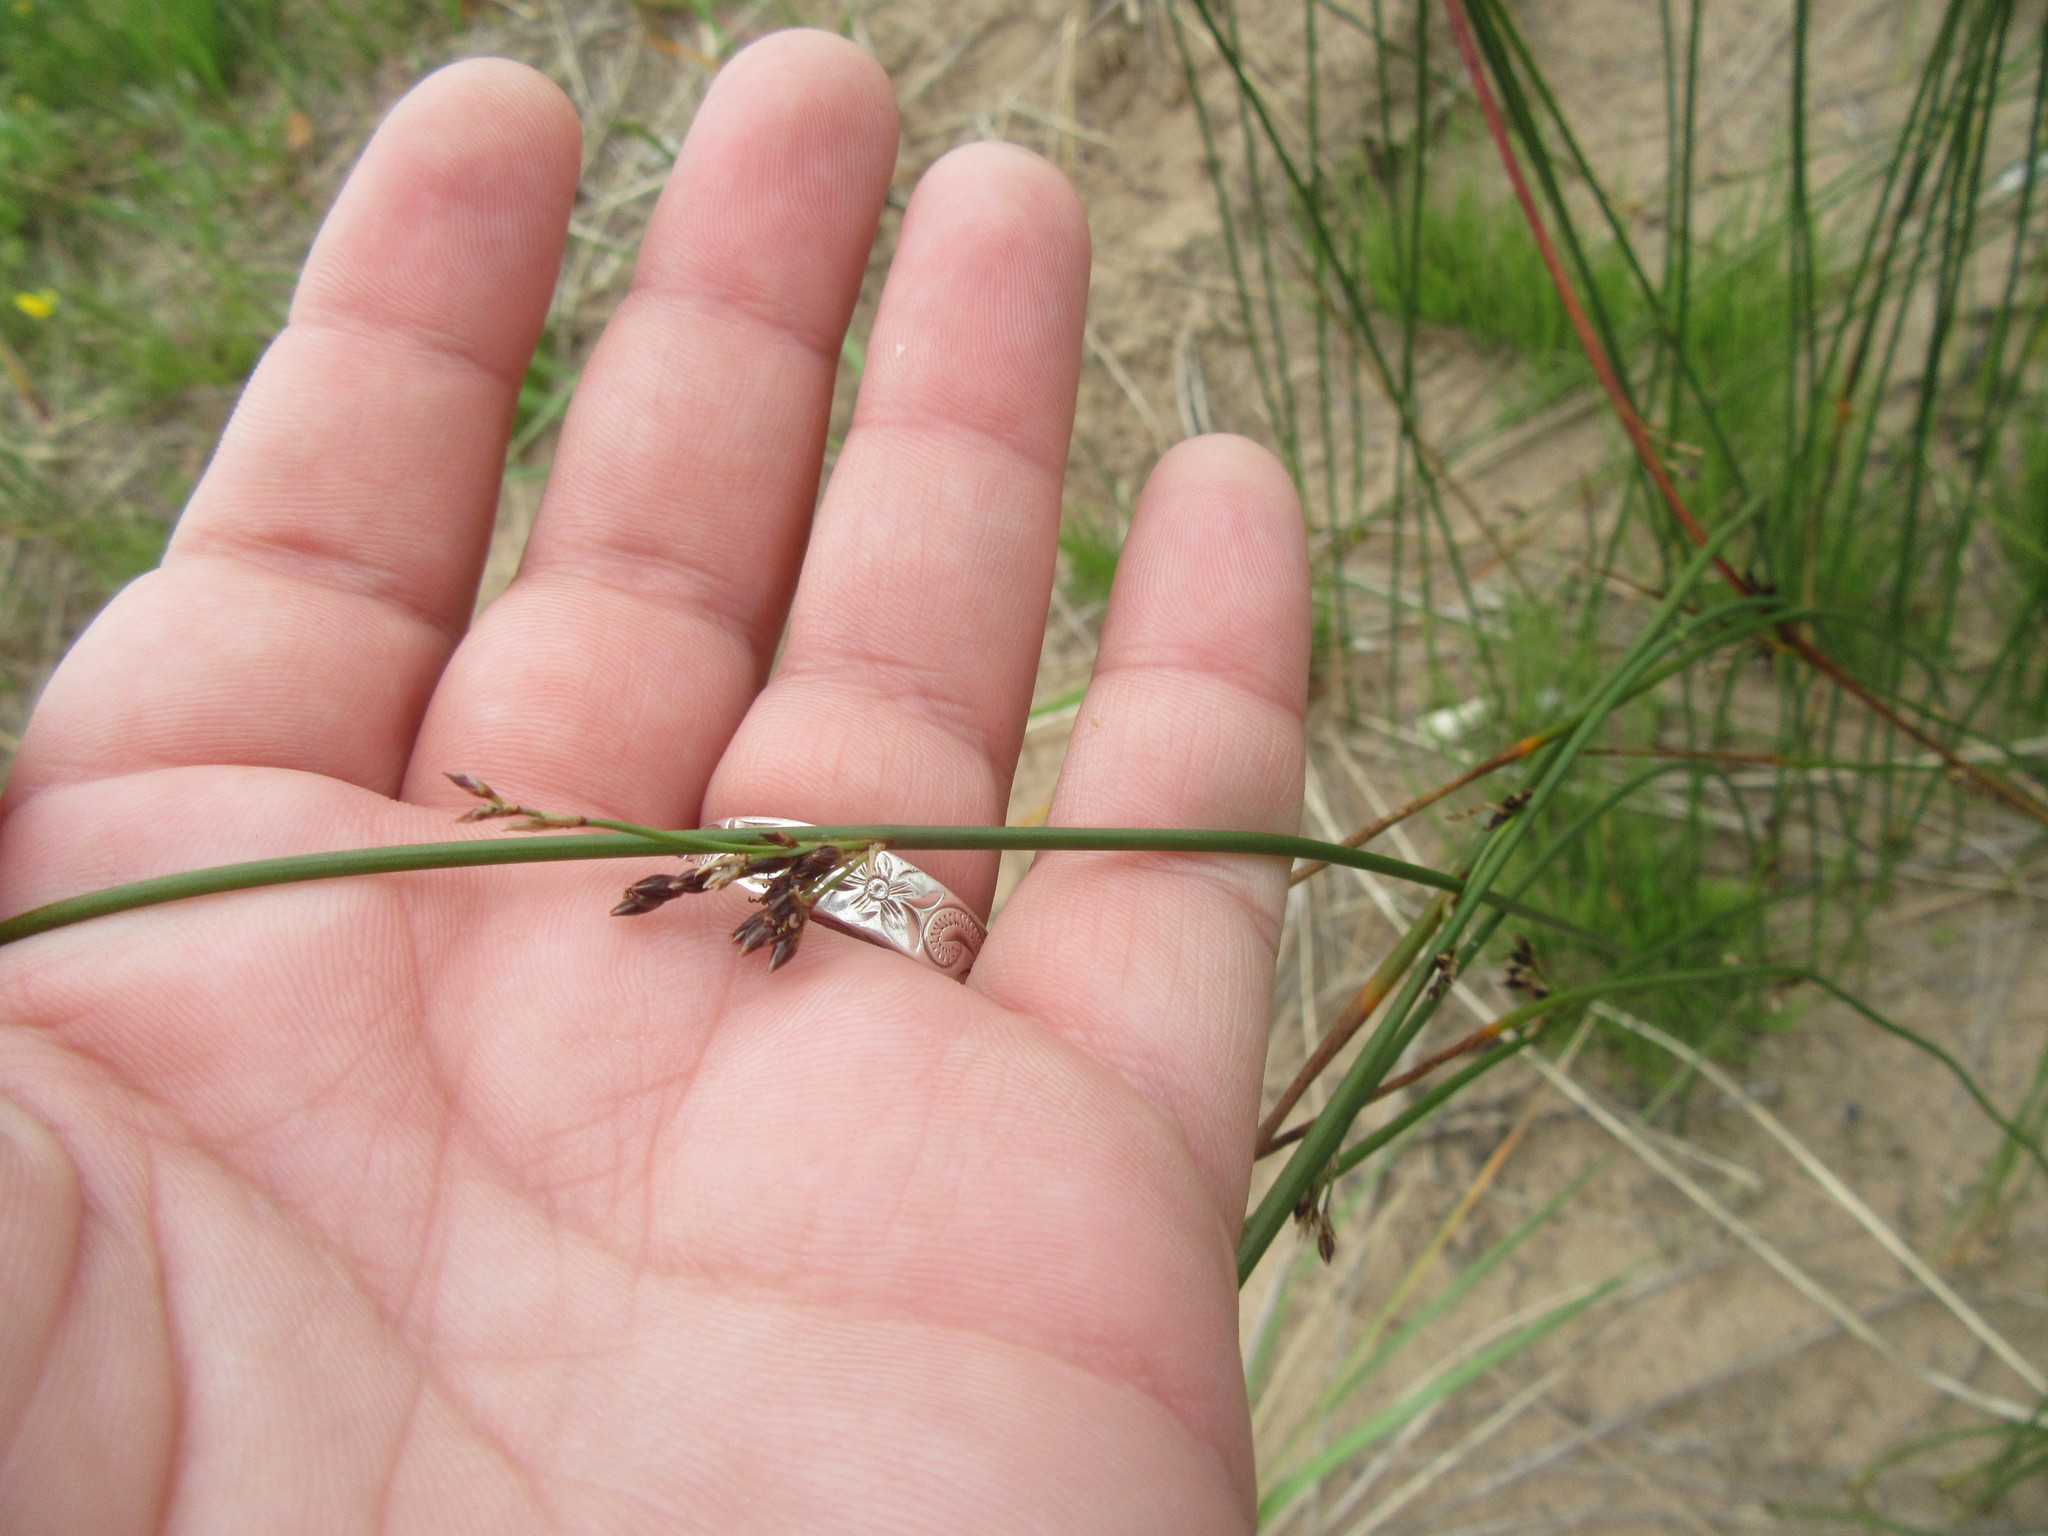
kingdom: Plantae
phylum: Tracheophyta
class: Liliopsida
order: Poales
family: Juncaceae
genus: Juncus
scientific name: Juncus balticus
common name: Baltic rush
